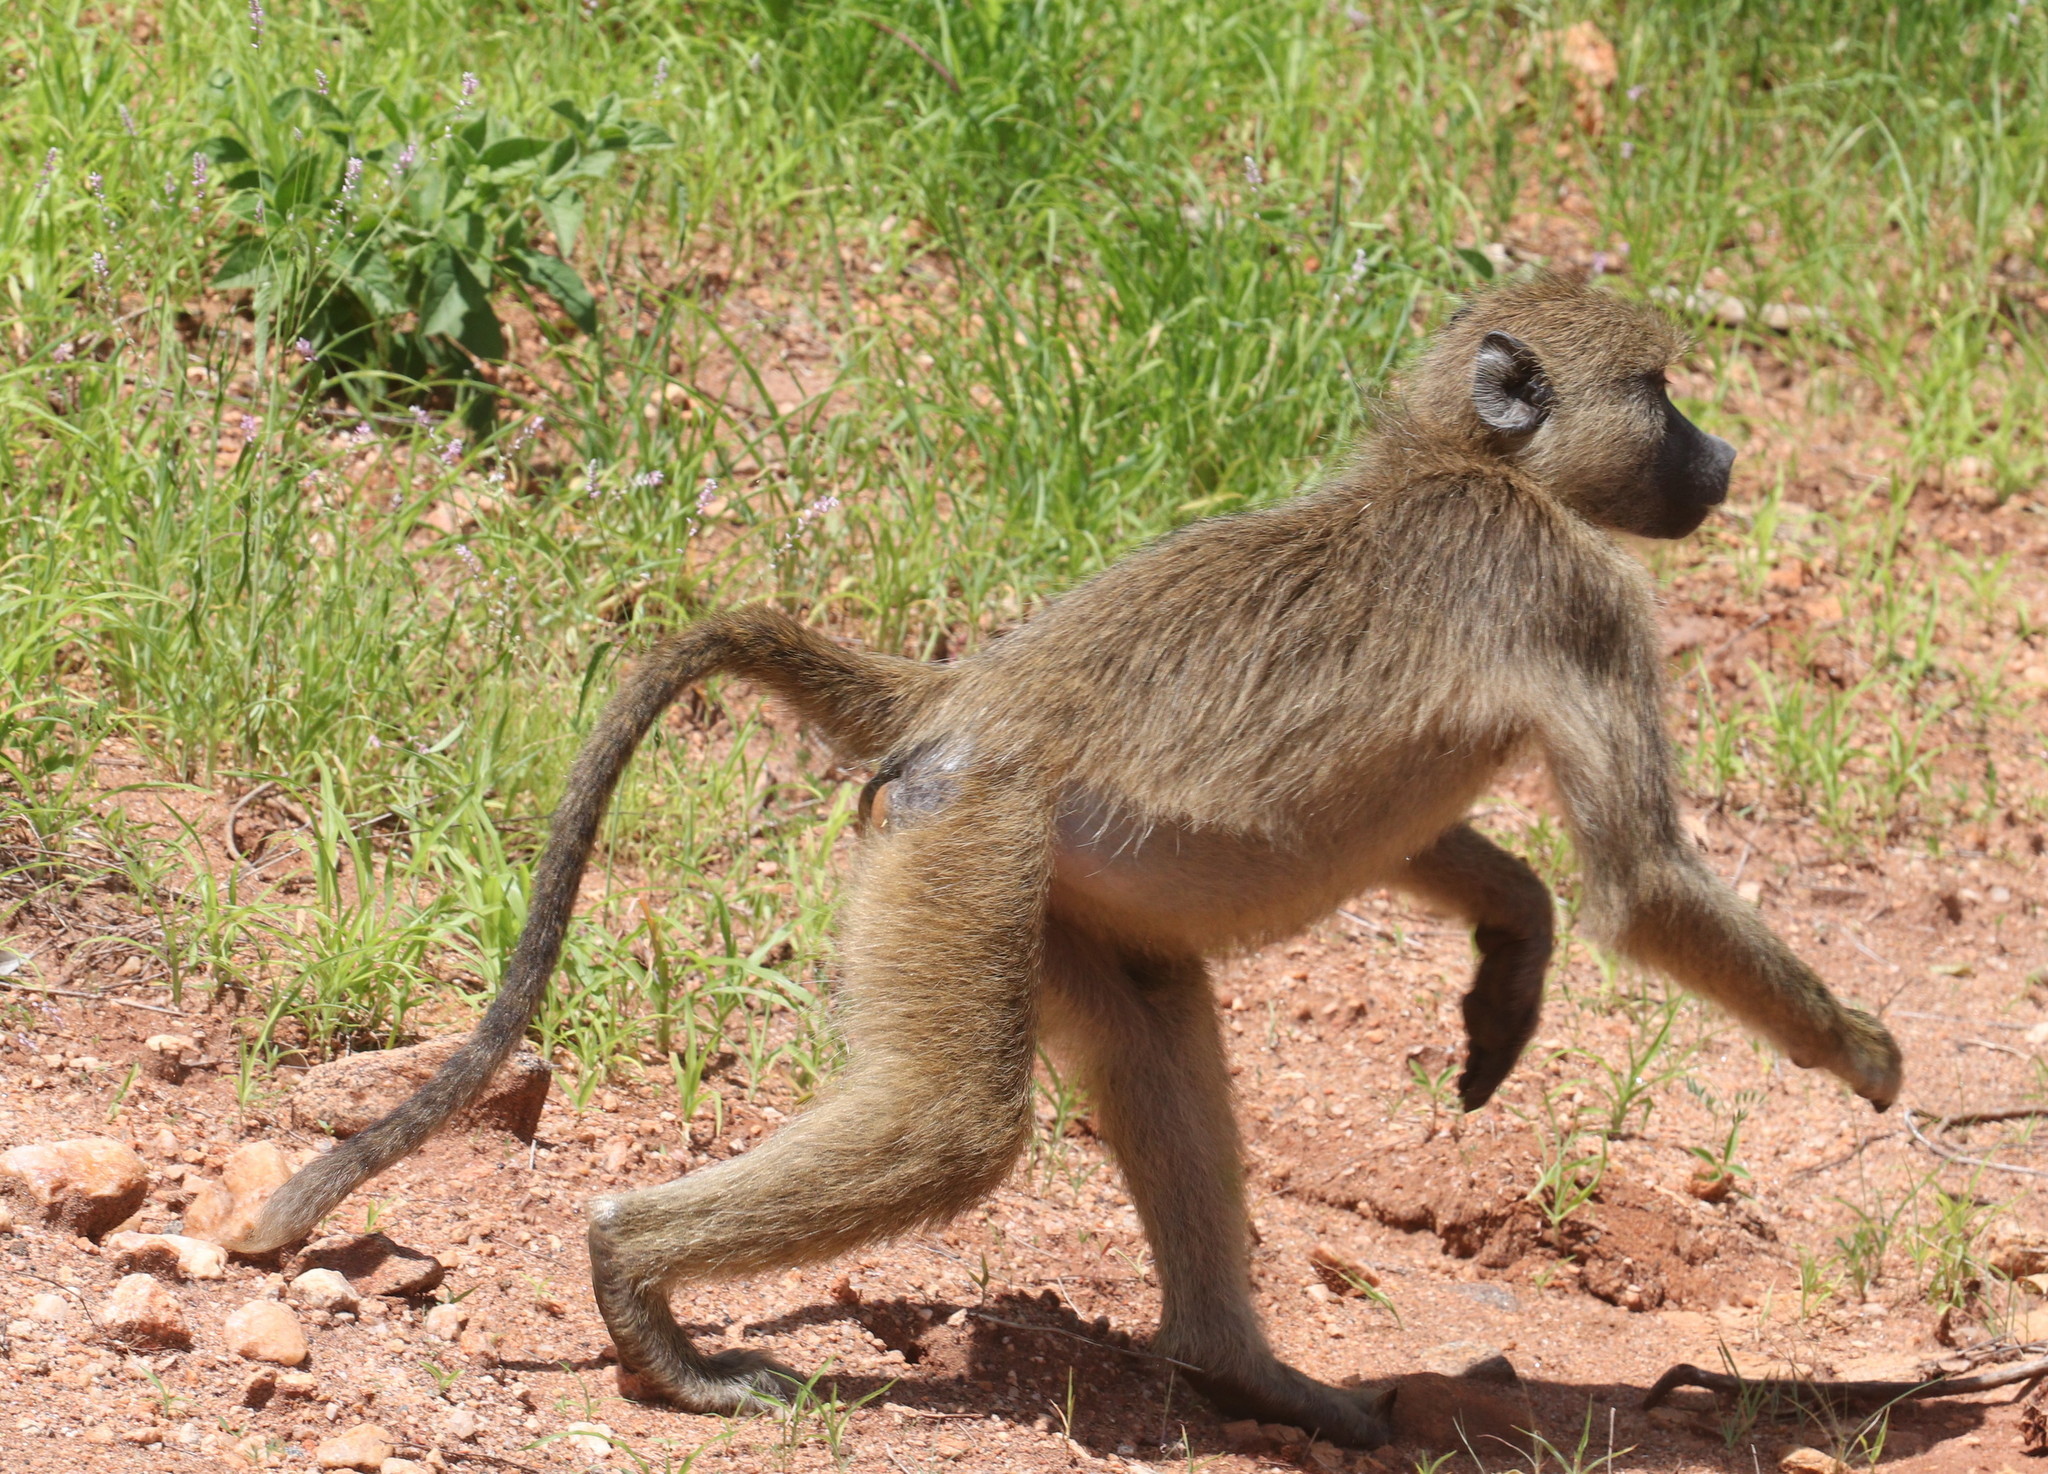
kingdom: Animalia
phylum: Chordata
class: Mammalia
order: Primates
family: Cercopithecidae
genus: Papio
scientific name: Papio cynocephalus
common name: Yellow baboon
